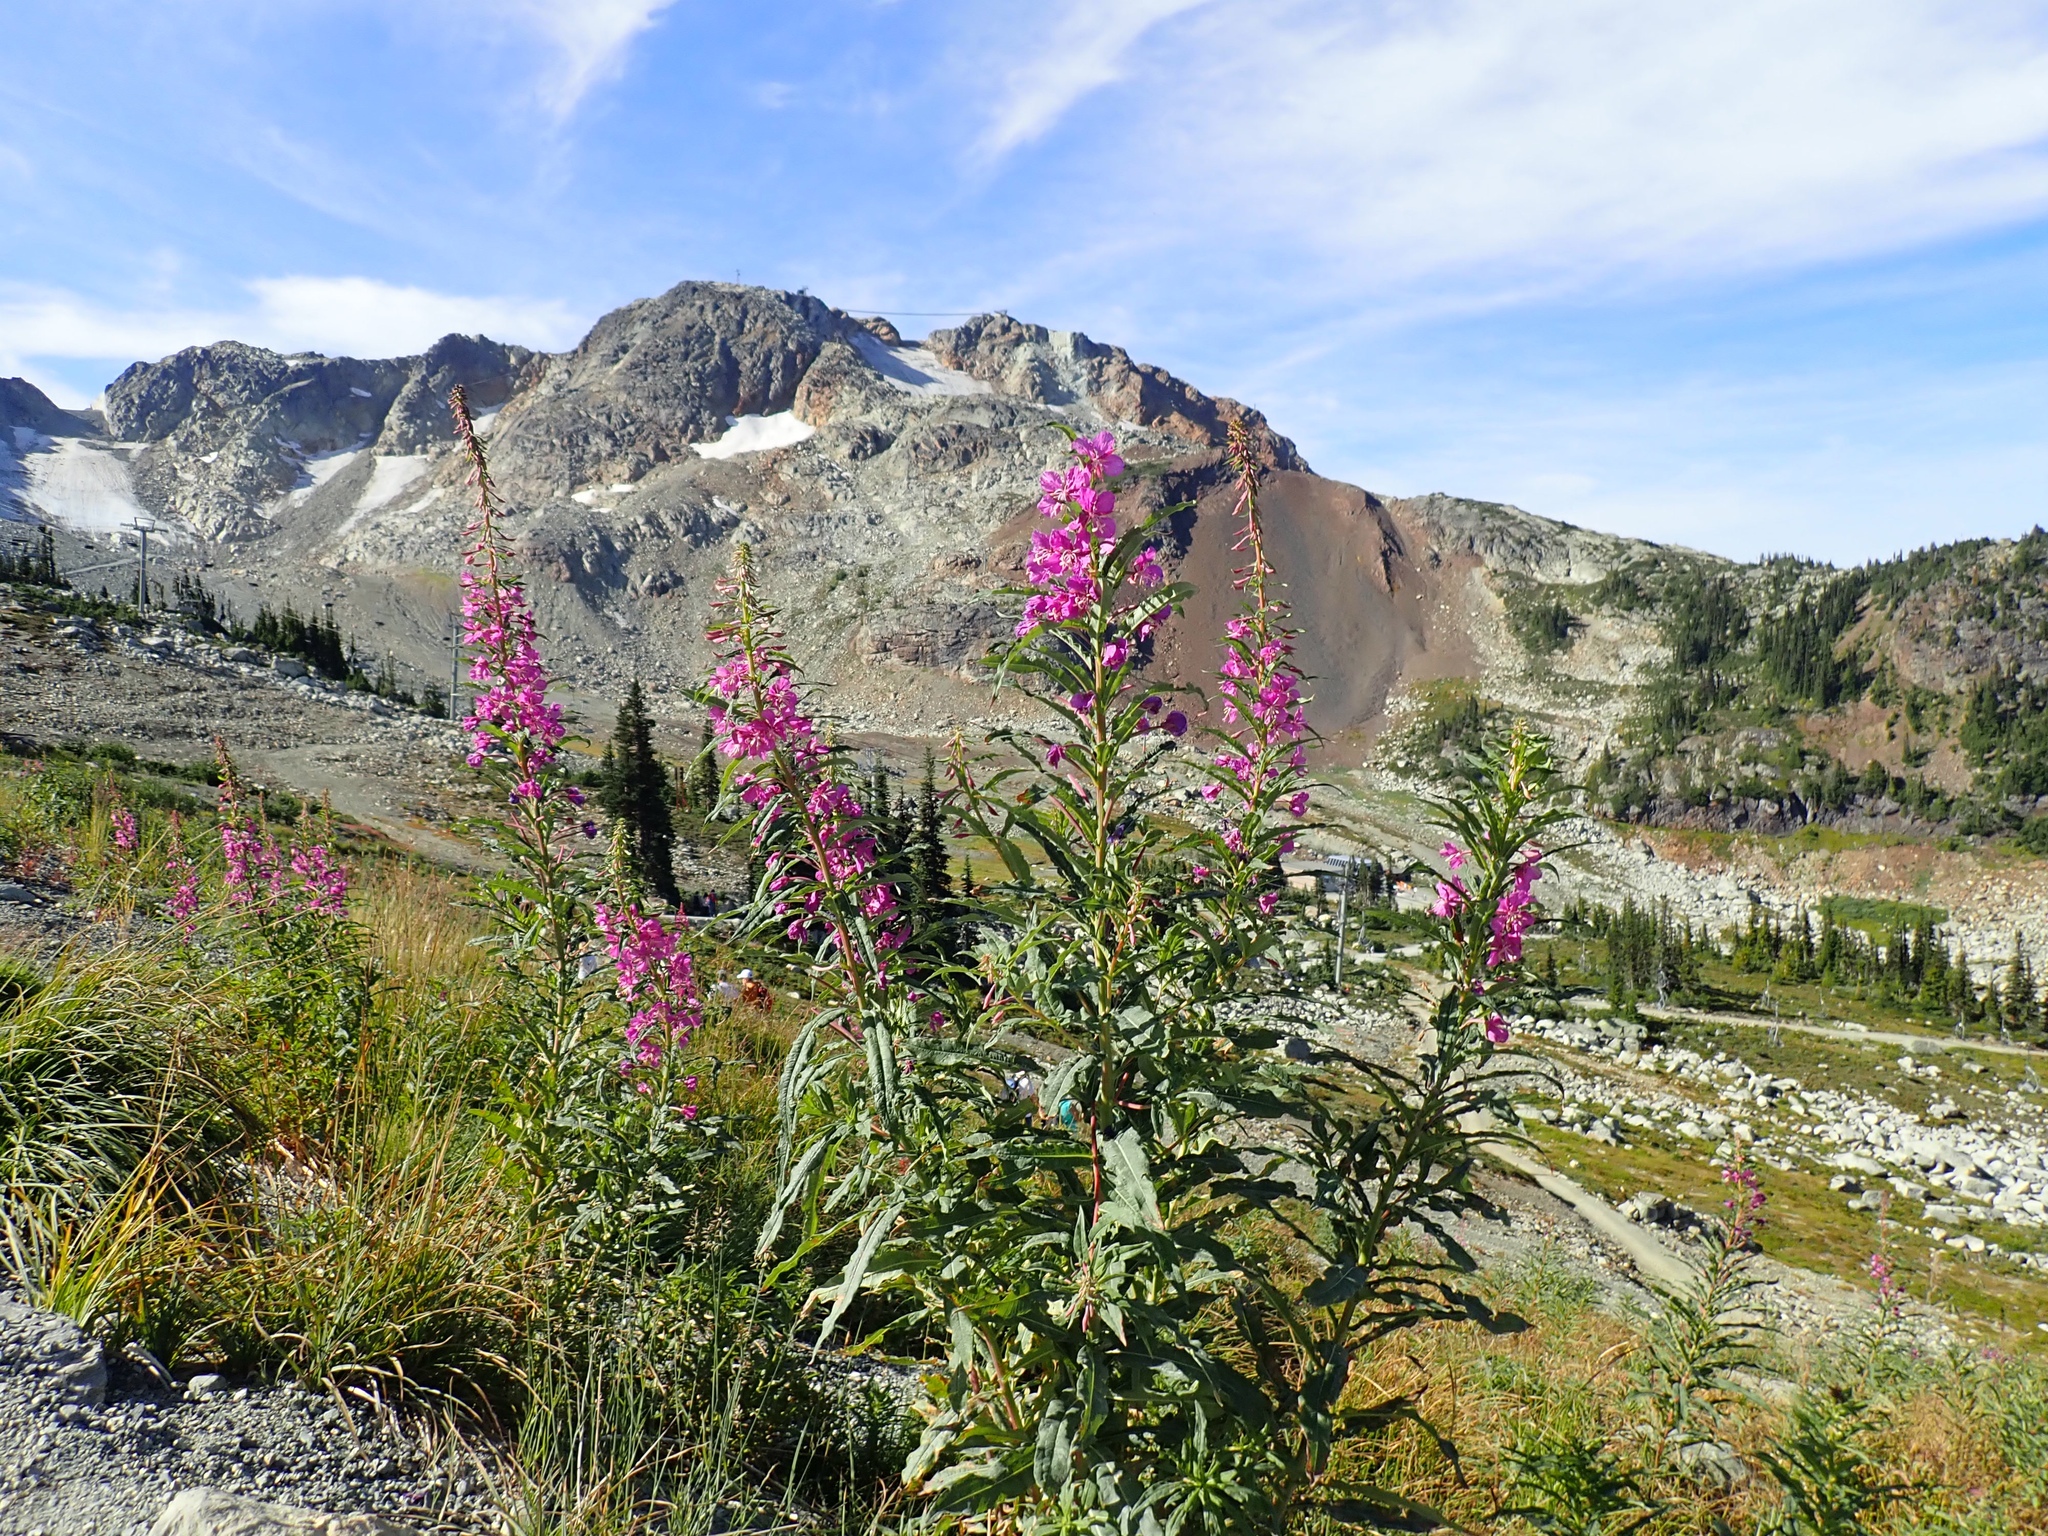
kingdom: Plantae
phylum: Tracheophyta
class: Magnoliopsida
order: Myrtales
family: Onagraceae
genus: Chamaenerion
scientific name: Chamaenerion angustifolium
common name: Fireweed
